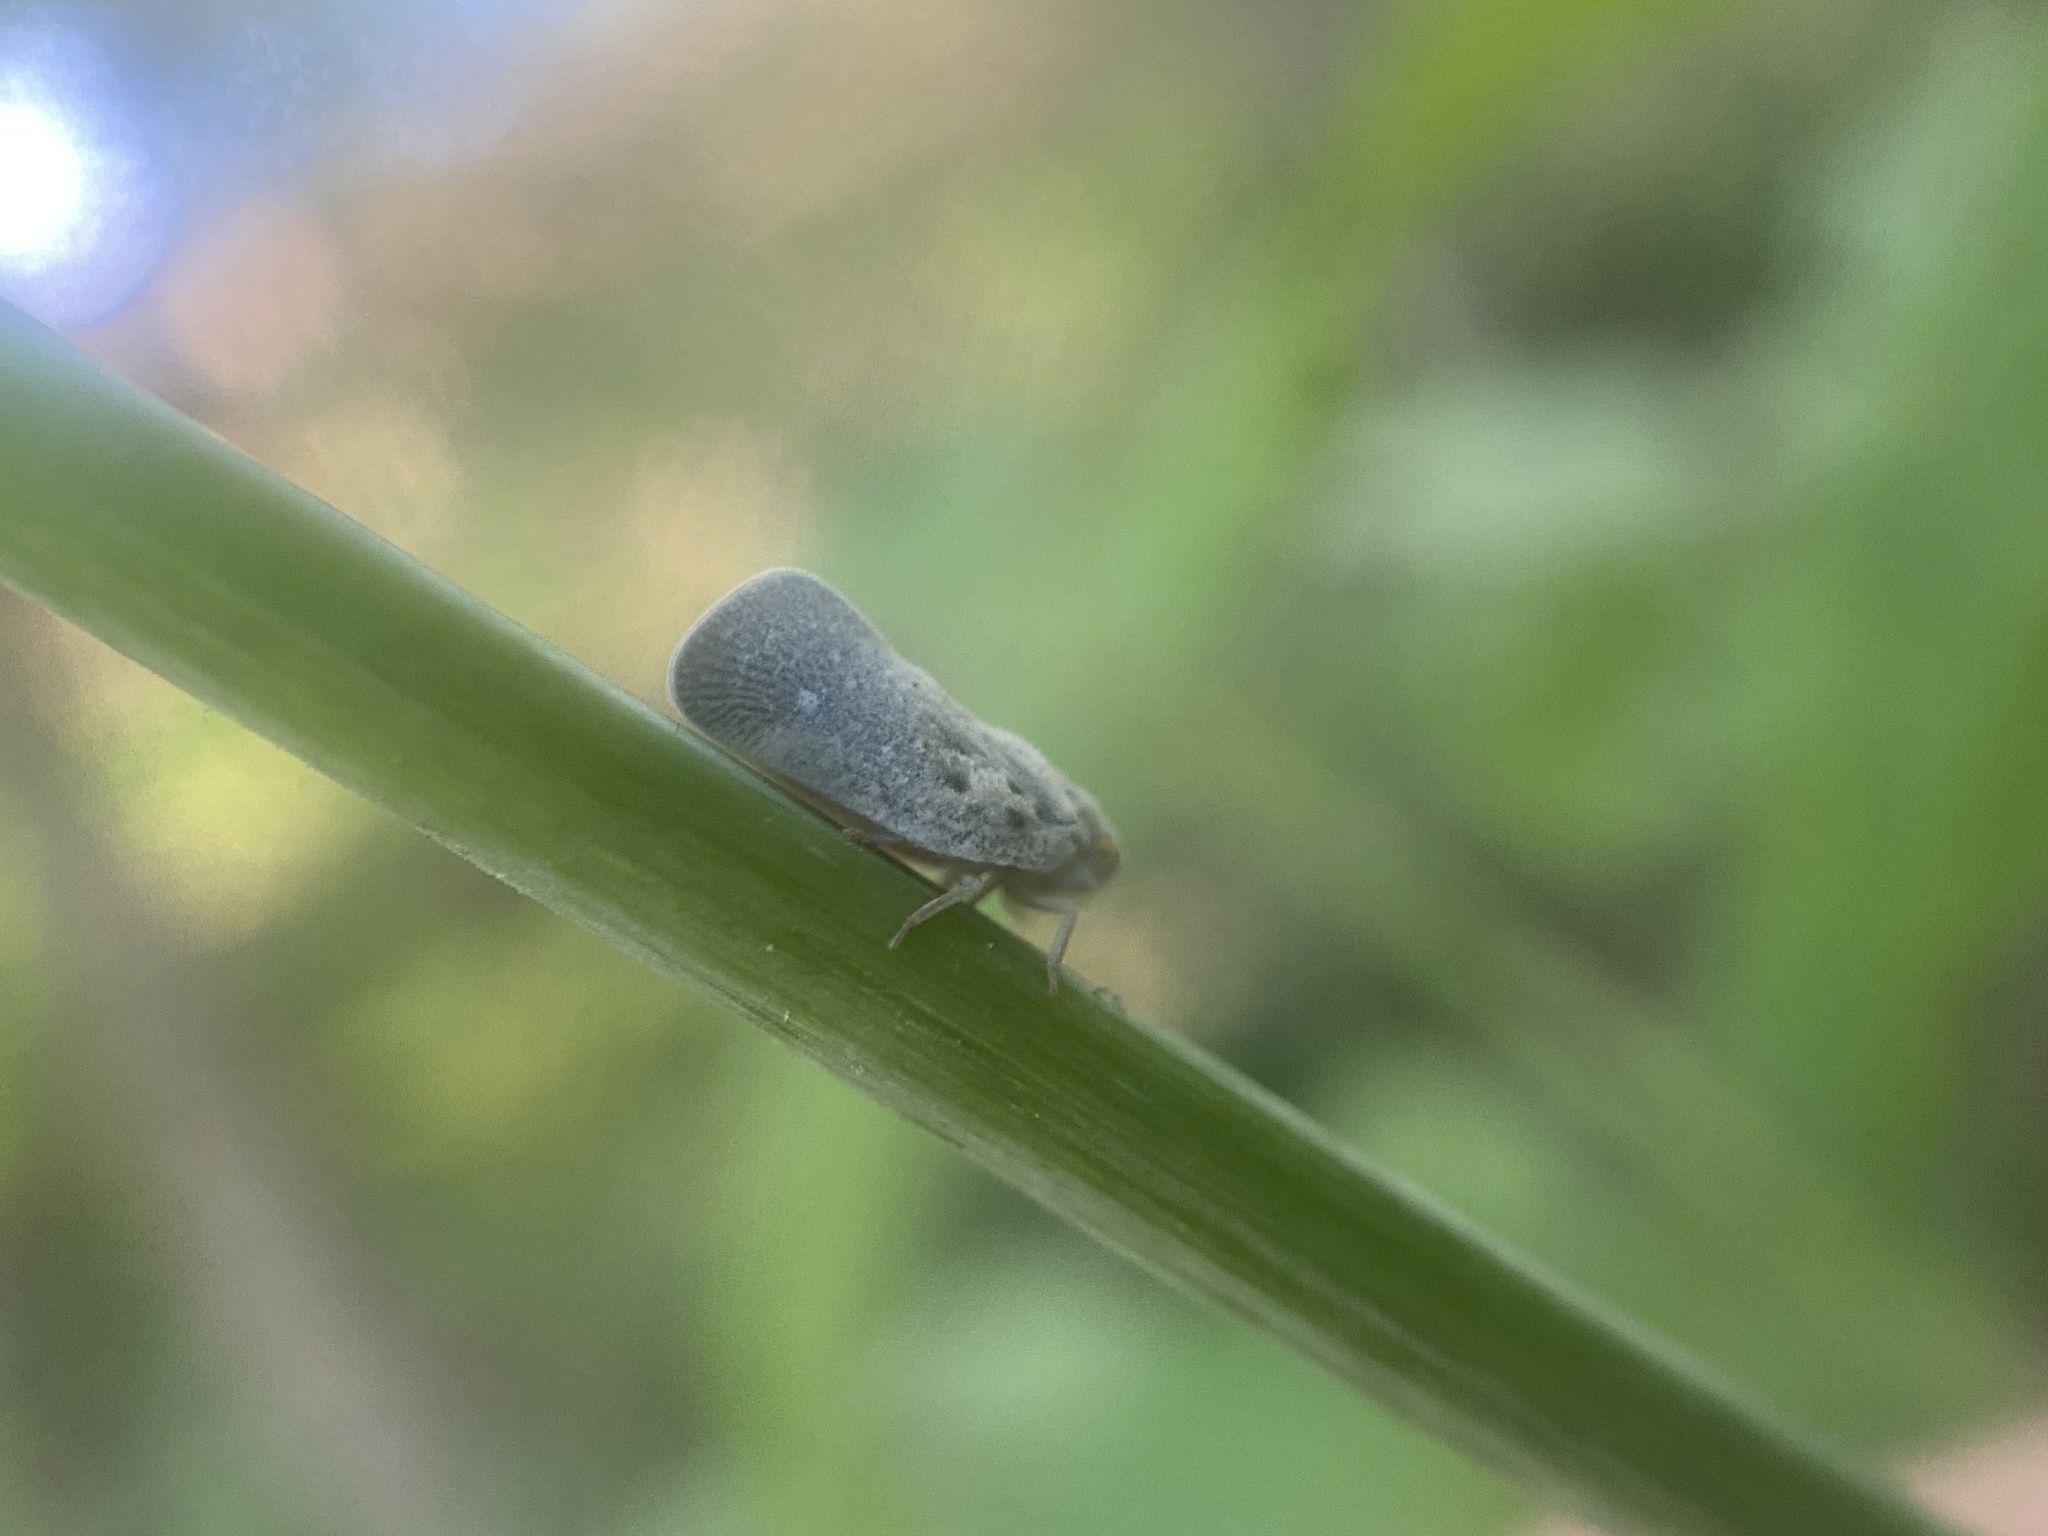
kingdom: Animalia
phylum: Arthropoda
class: Insecta
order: Hemiptera
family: Flatidae
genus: Metcalfa
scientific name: Metcalfa pruinosa
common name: Citrus flatid planthopper
